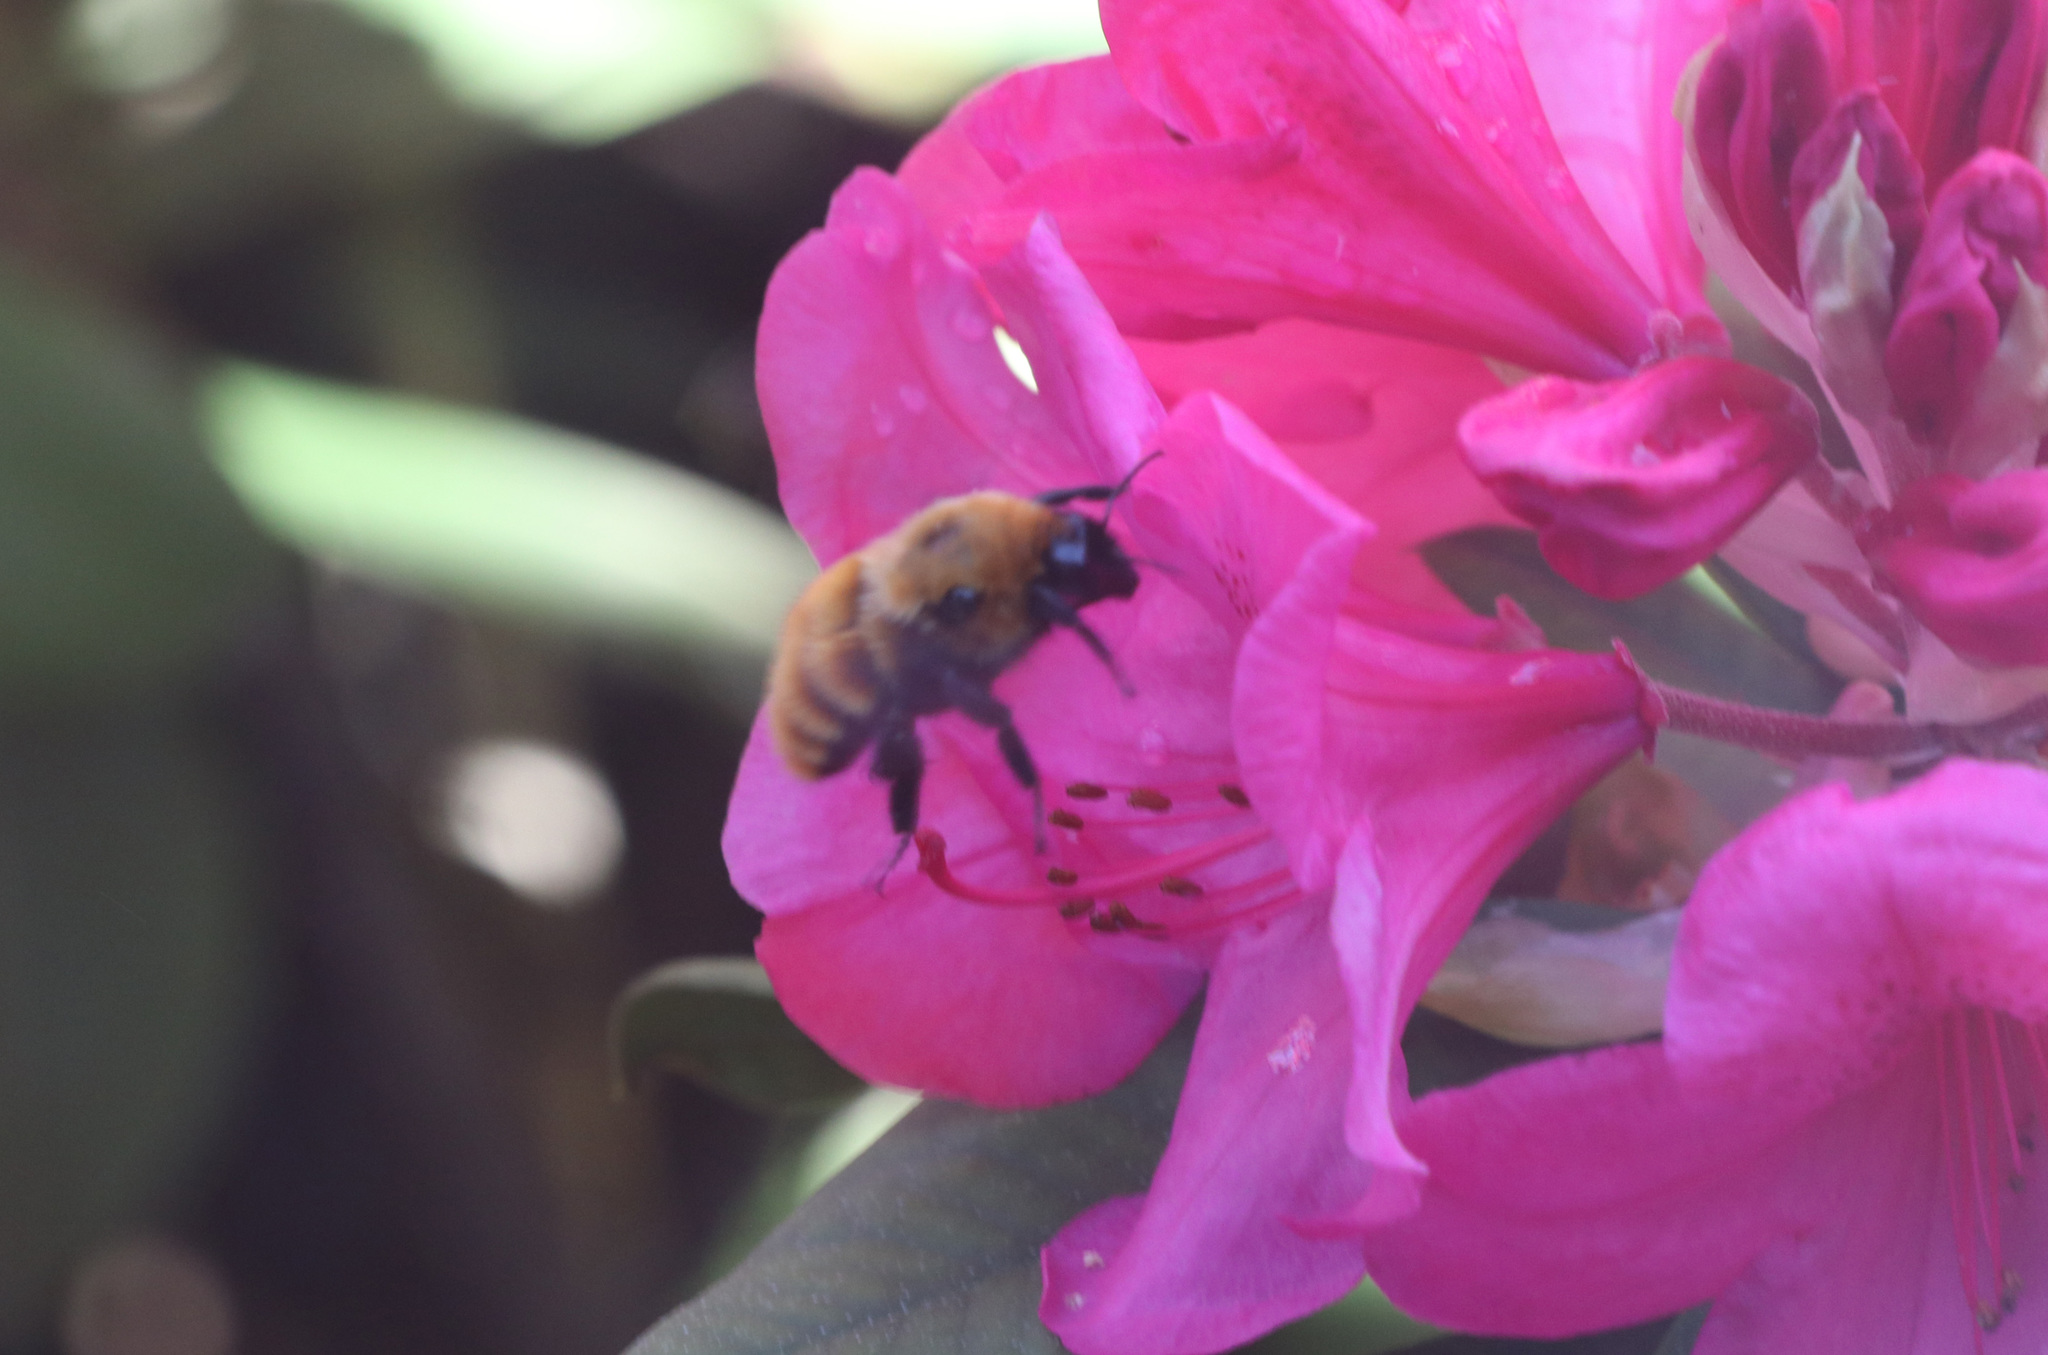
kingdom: Animalia
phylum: Arthropoda
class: Insecta
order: Hymenoptera
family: Apidae
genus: Bombus
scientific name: Bombus dahlbomii
